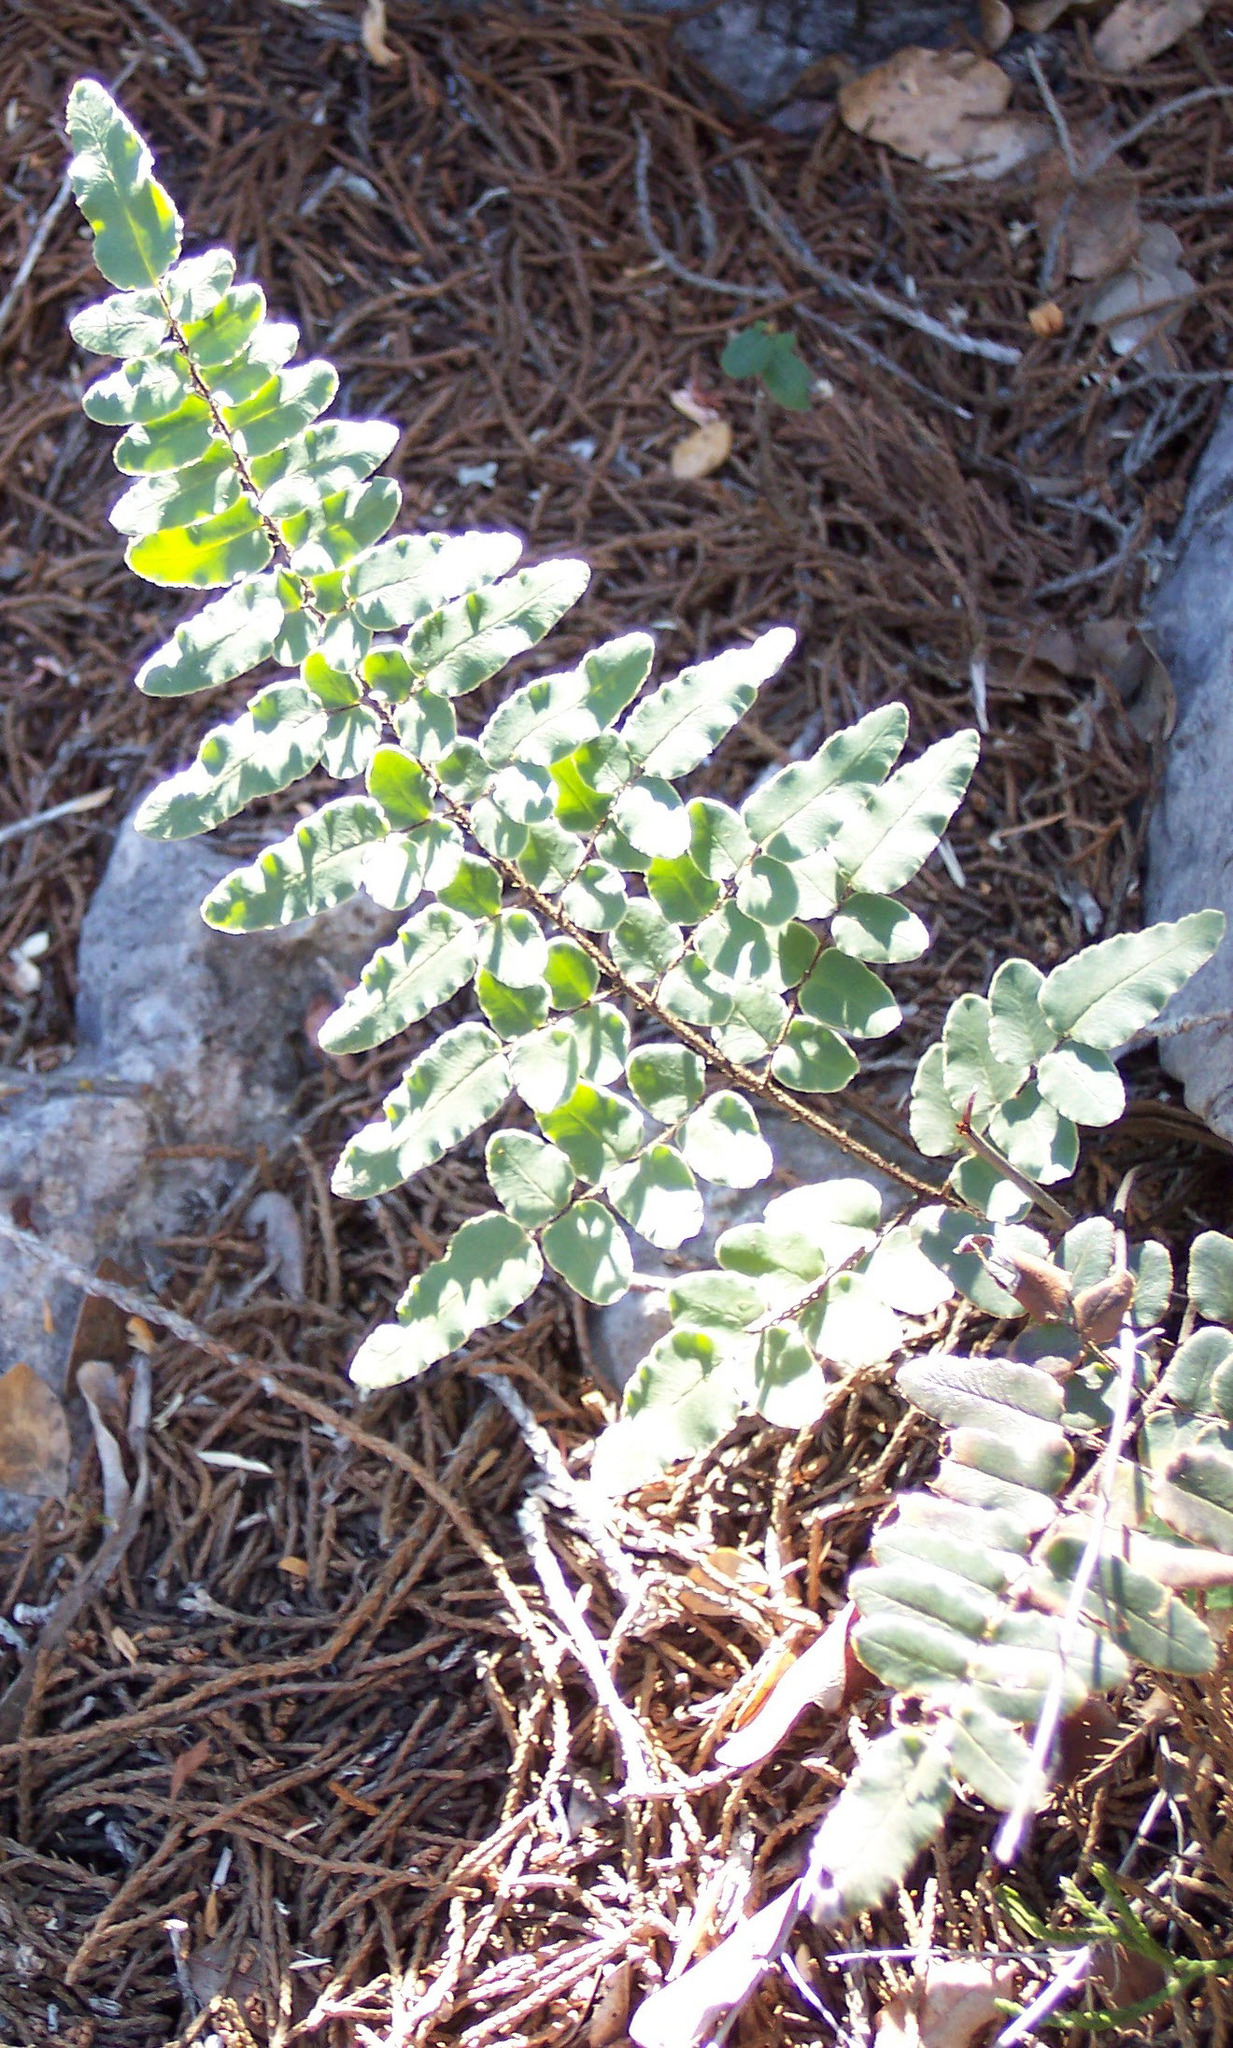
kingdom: Plantae
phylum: Tracheophyta
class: Polypodiopsida
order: Polypodiales
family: Pteridaceae
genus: Pellaea
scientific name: Pellaea atropurpurea
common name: Hairy cliffbrake
